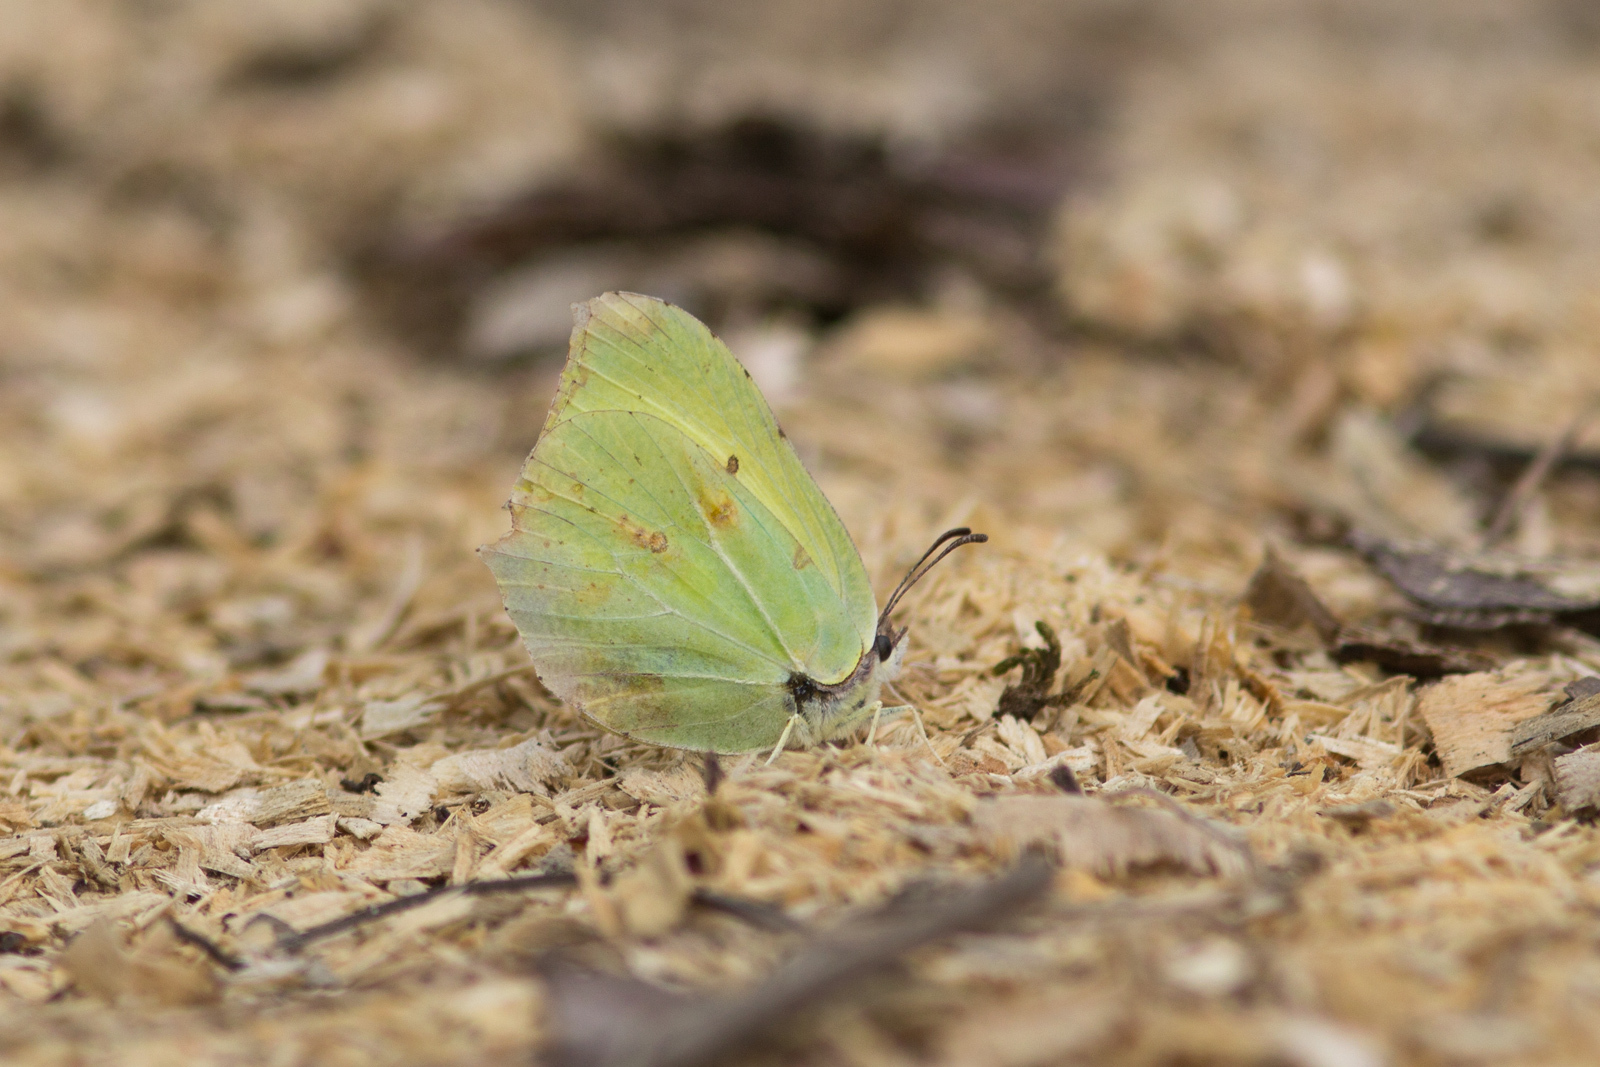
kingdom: Animalia
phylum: Arthropoda
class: Insecta
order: Lepidoptera
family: Pieridae
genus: Gonepteryx
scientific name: Gonepteryx rhamni
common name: Brimstone
